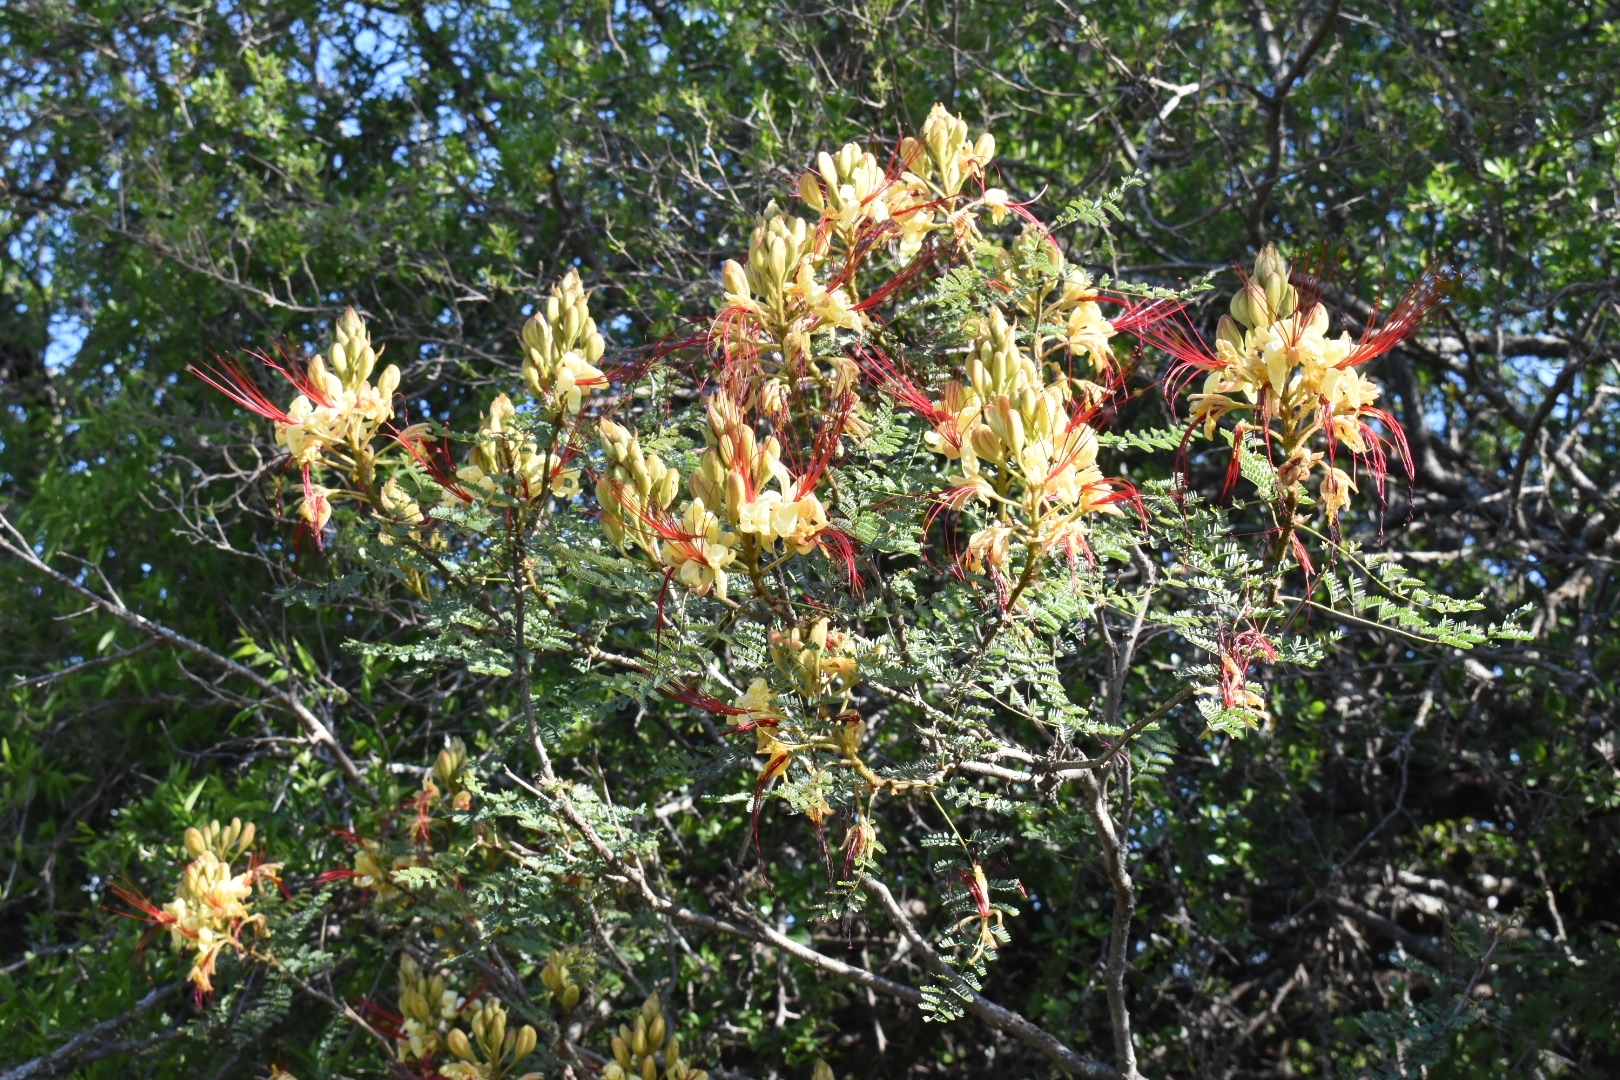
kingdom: Plantae
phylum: Tracheophyta
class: Magnoliopsida
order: Fabales
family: Fabaceae
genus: Erythrostemon
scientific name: Erythrostemon gilliesii
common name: Bird-of-paradise shrub
